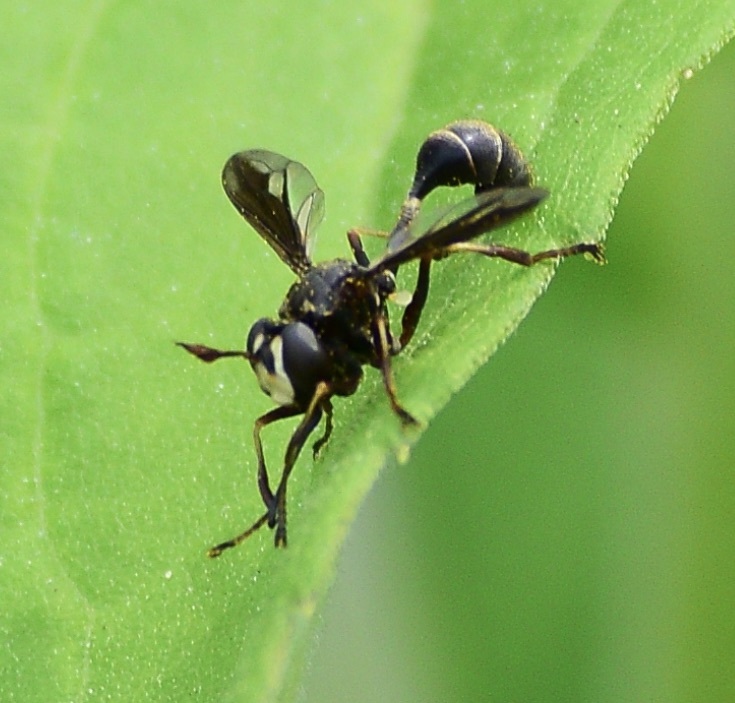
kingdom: Animalia
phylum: Arthropoda
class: Insecta
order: Diptera
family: Conopidae
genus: Physocephala
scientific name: Physocephala furcillata
